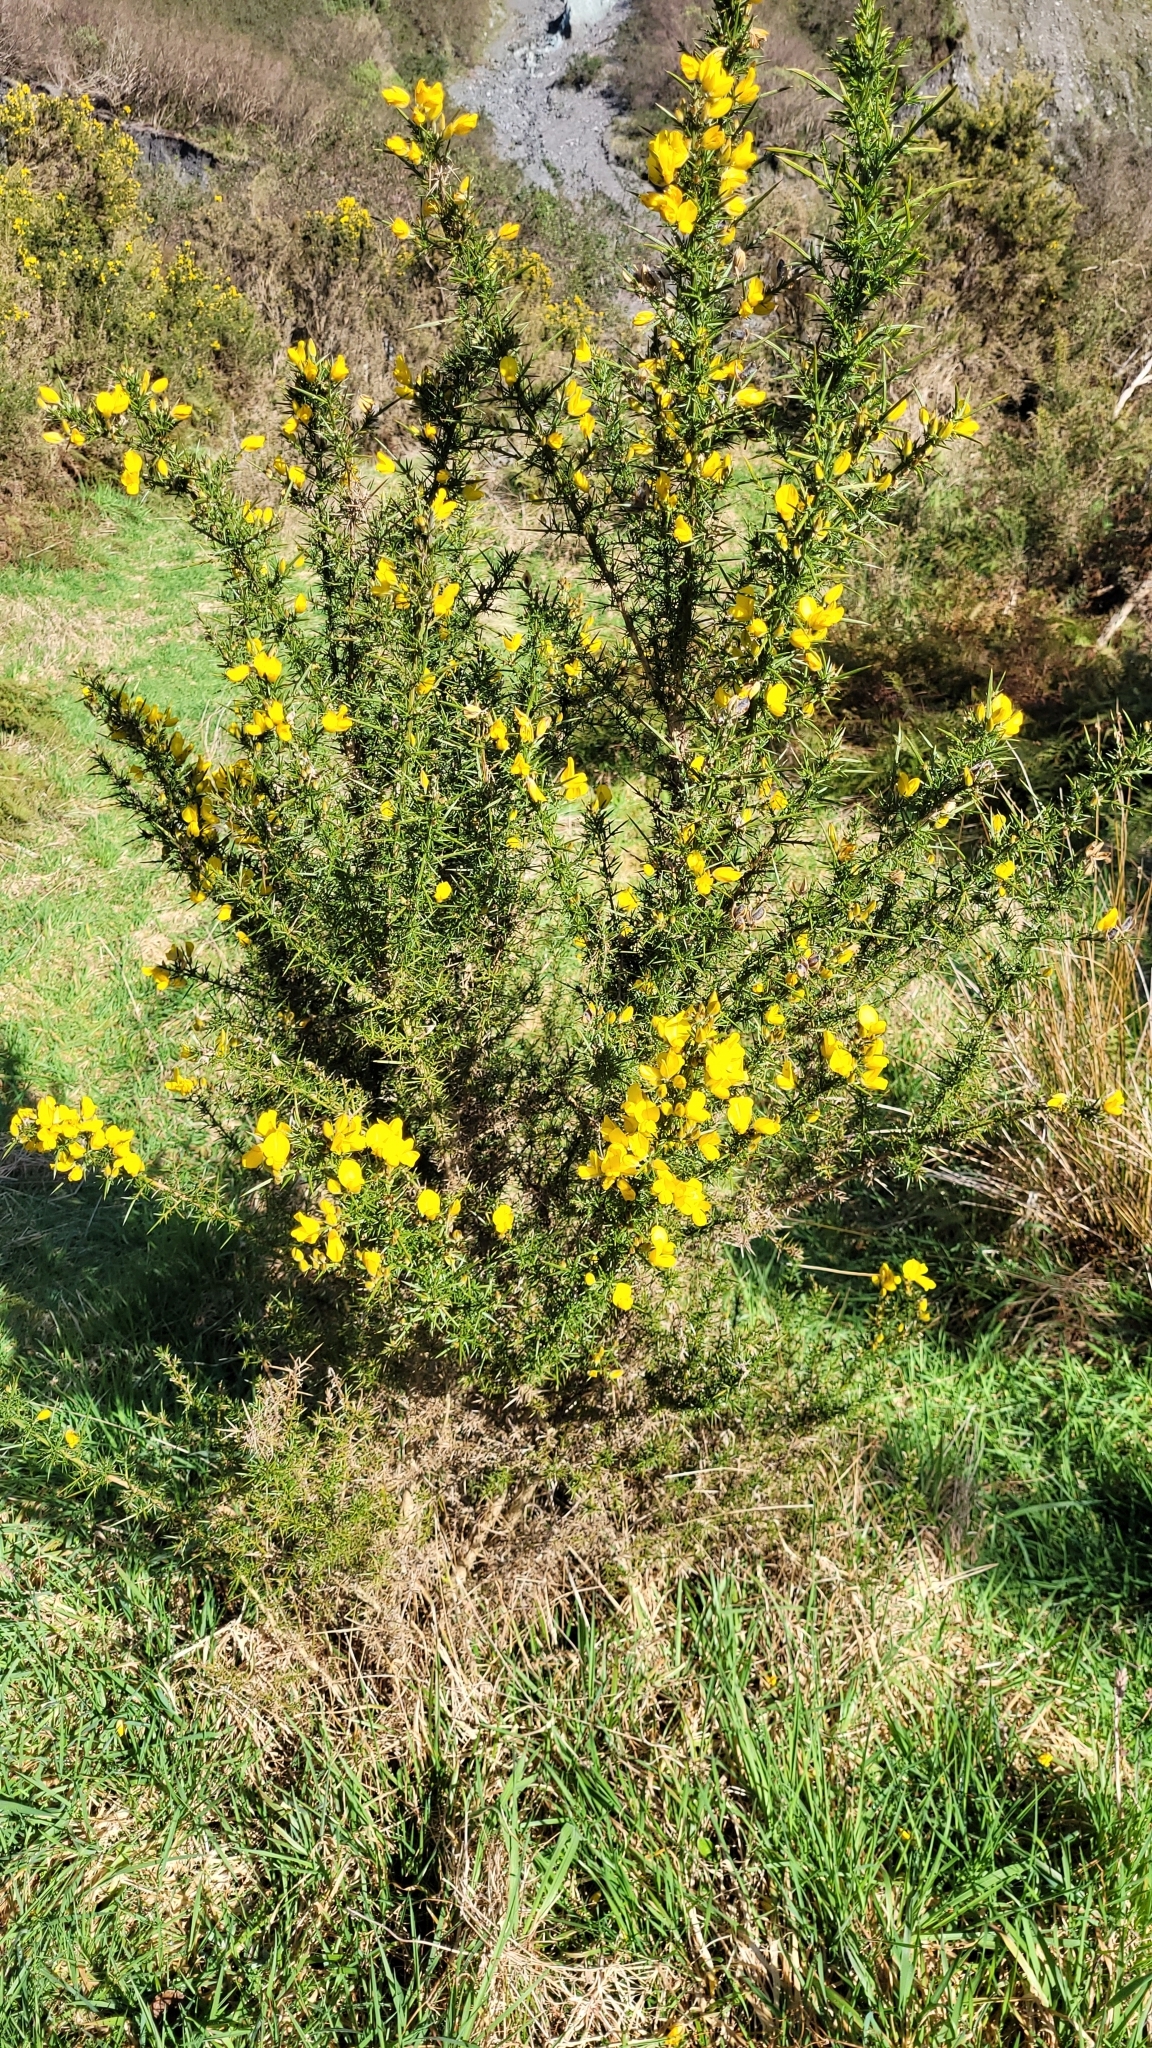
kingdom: Plantae
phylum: Tracheophyta
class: Magnoliopsida
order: Fabales
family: Fabaceae
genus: Ulex
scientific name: Ulex europaeus
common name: Common gorse
